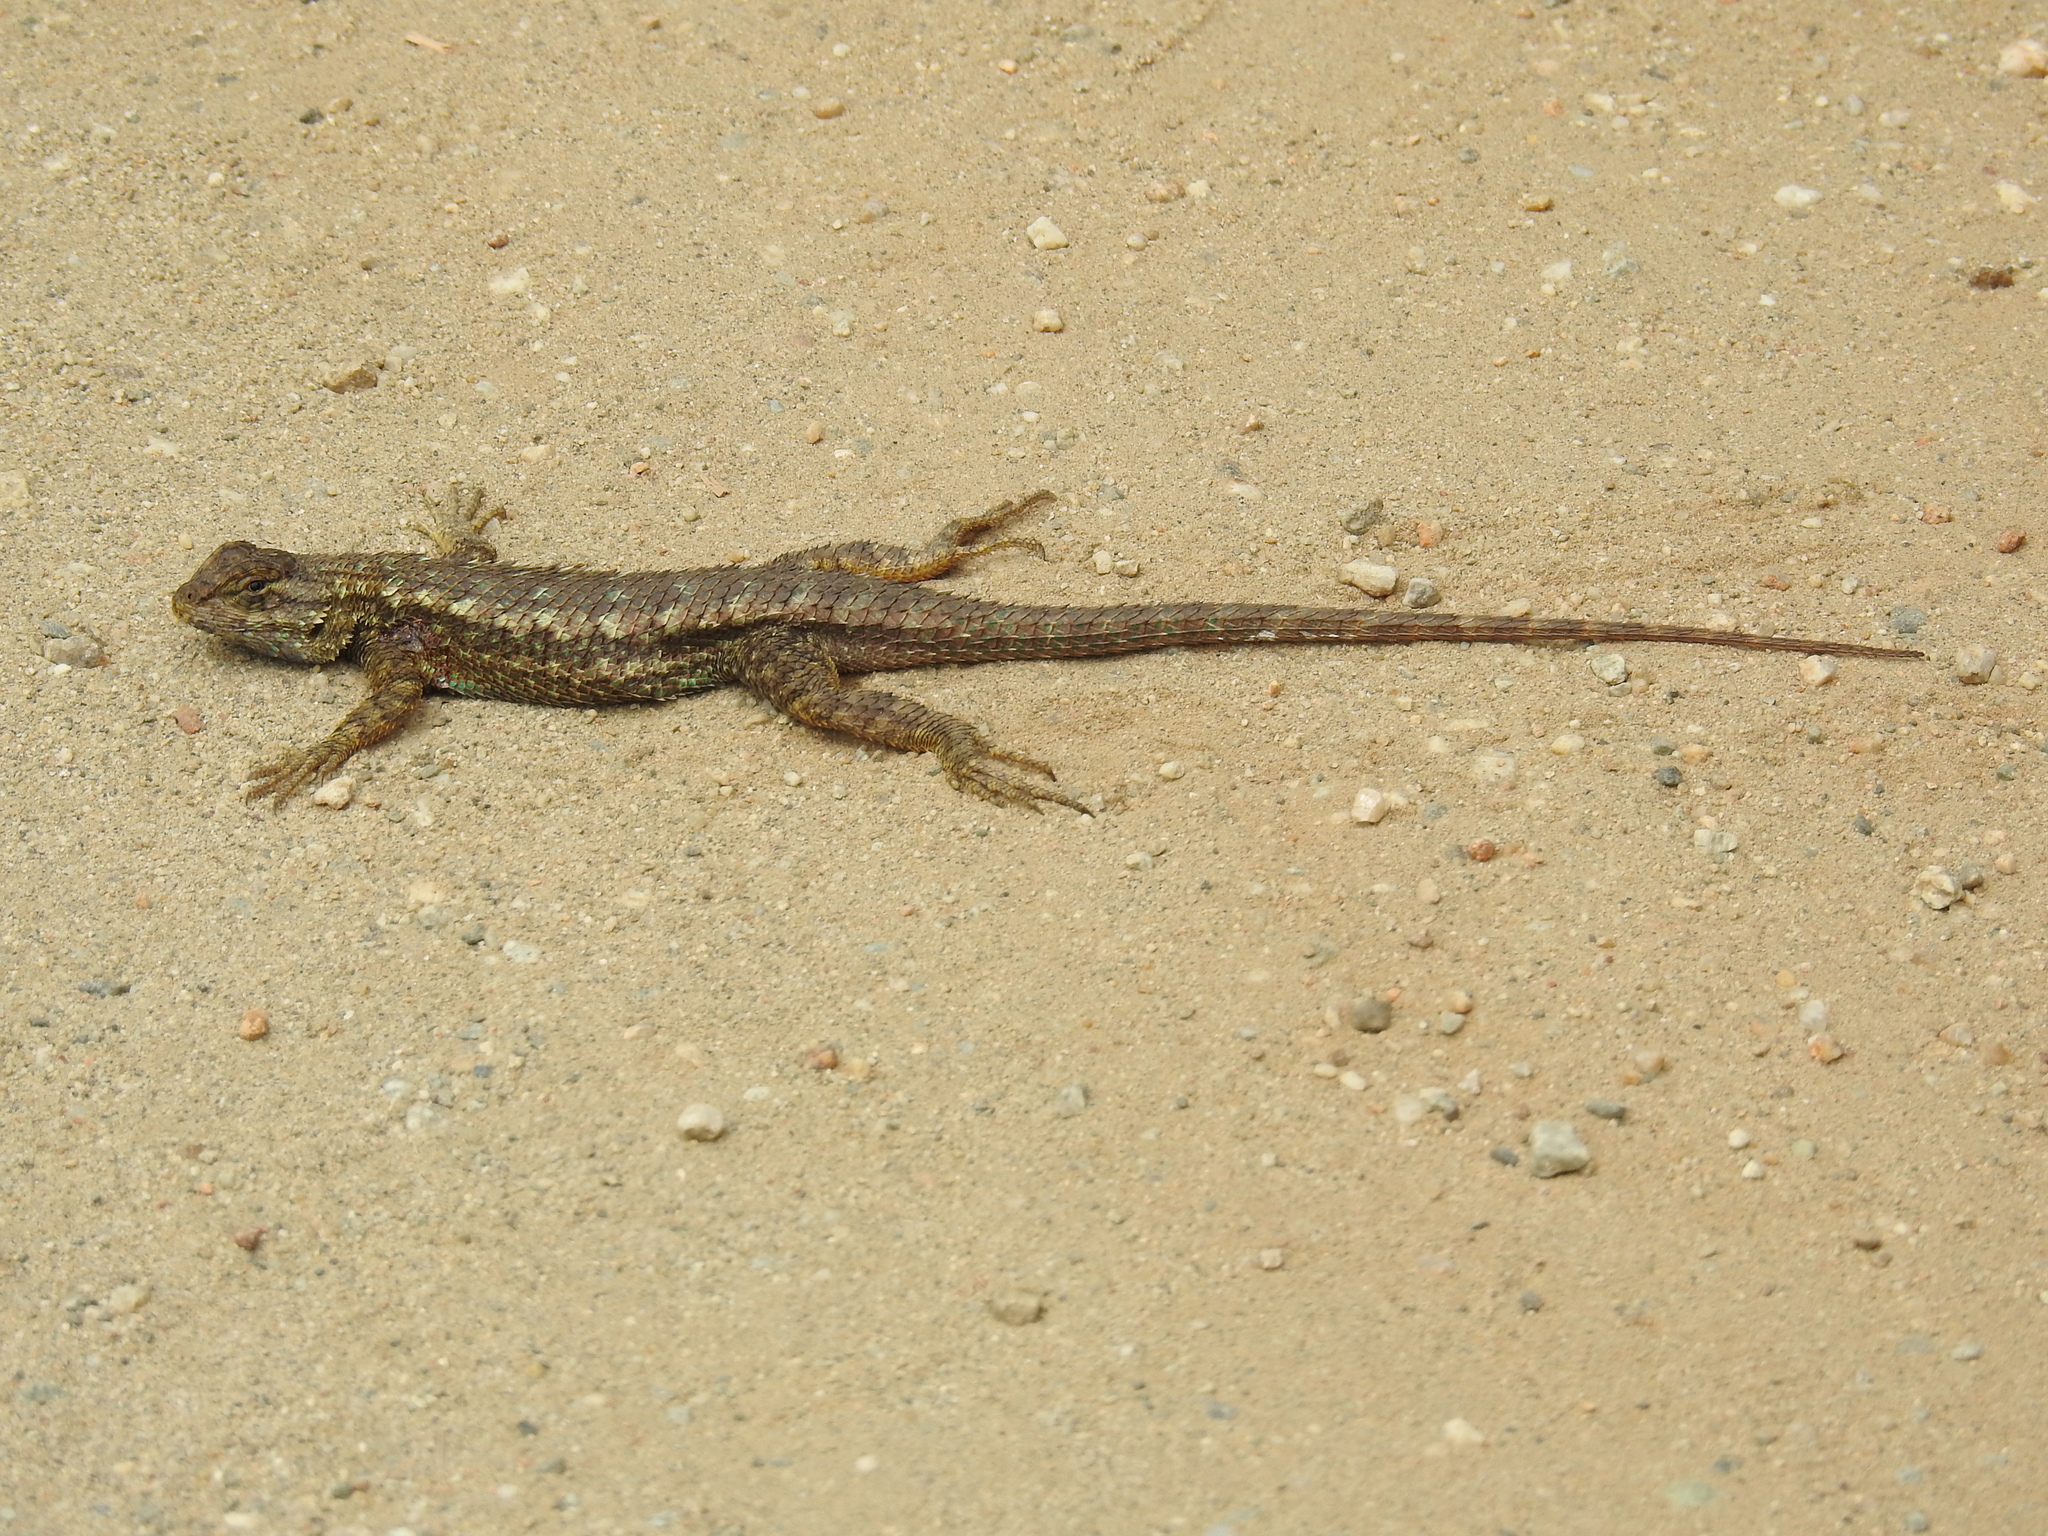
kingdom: Animalia
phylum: Chordata
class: Squamata
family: Phrynosomatidae
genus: Sceloporus
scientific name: Sceloporus occidentalis
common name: Western fence lizard
